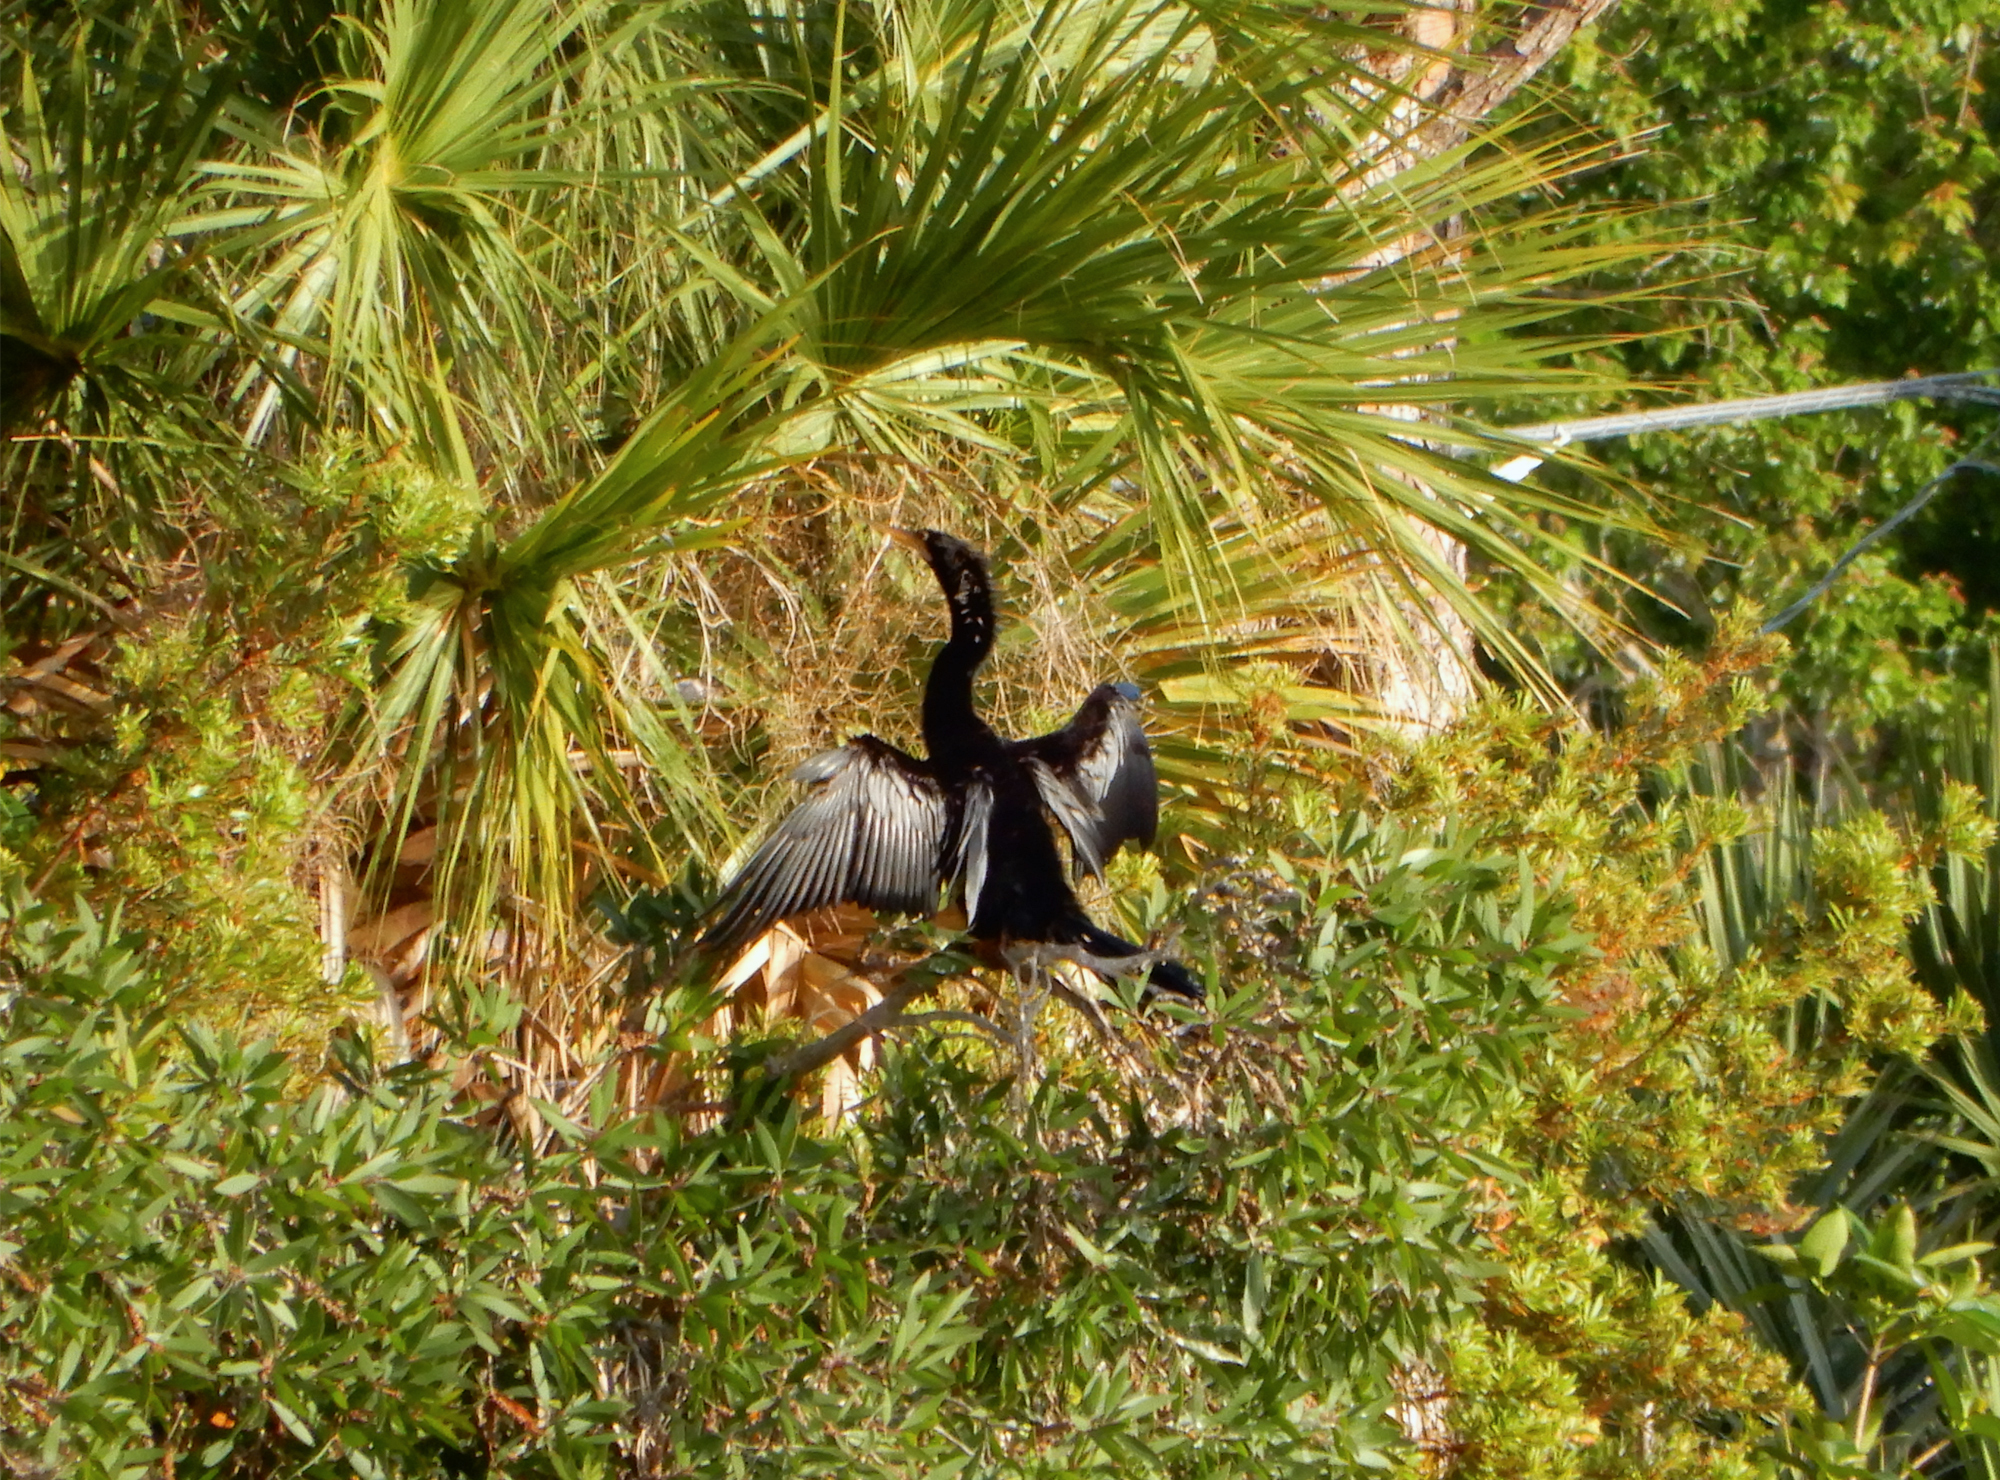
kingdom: Animalia
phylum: Chordata
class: Aves
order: Suliformes
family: Anhingidae
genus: Anhinga
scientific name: Anhinga anhinga
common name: Anhinga
